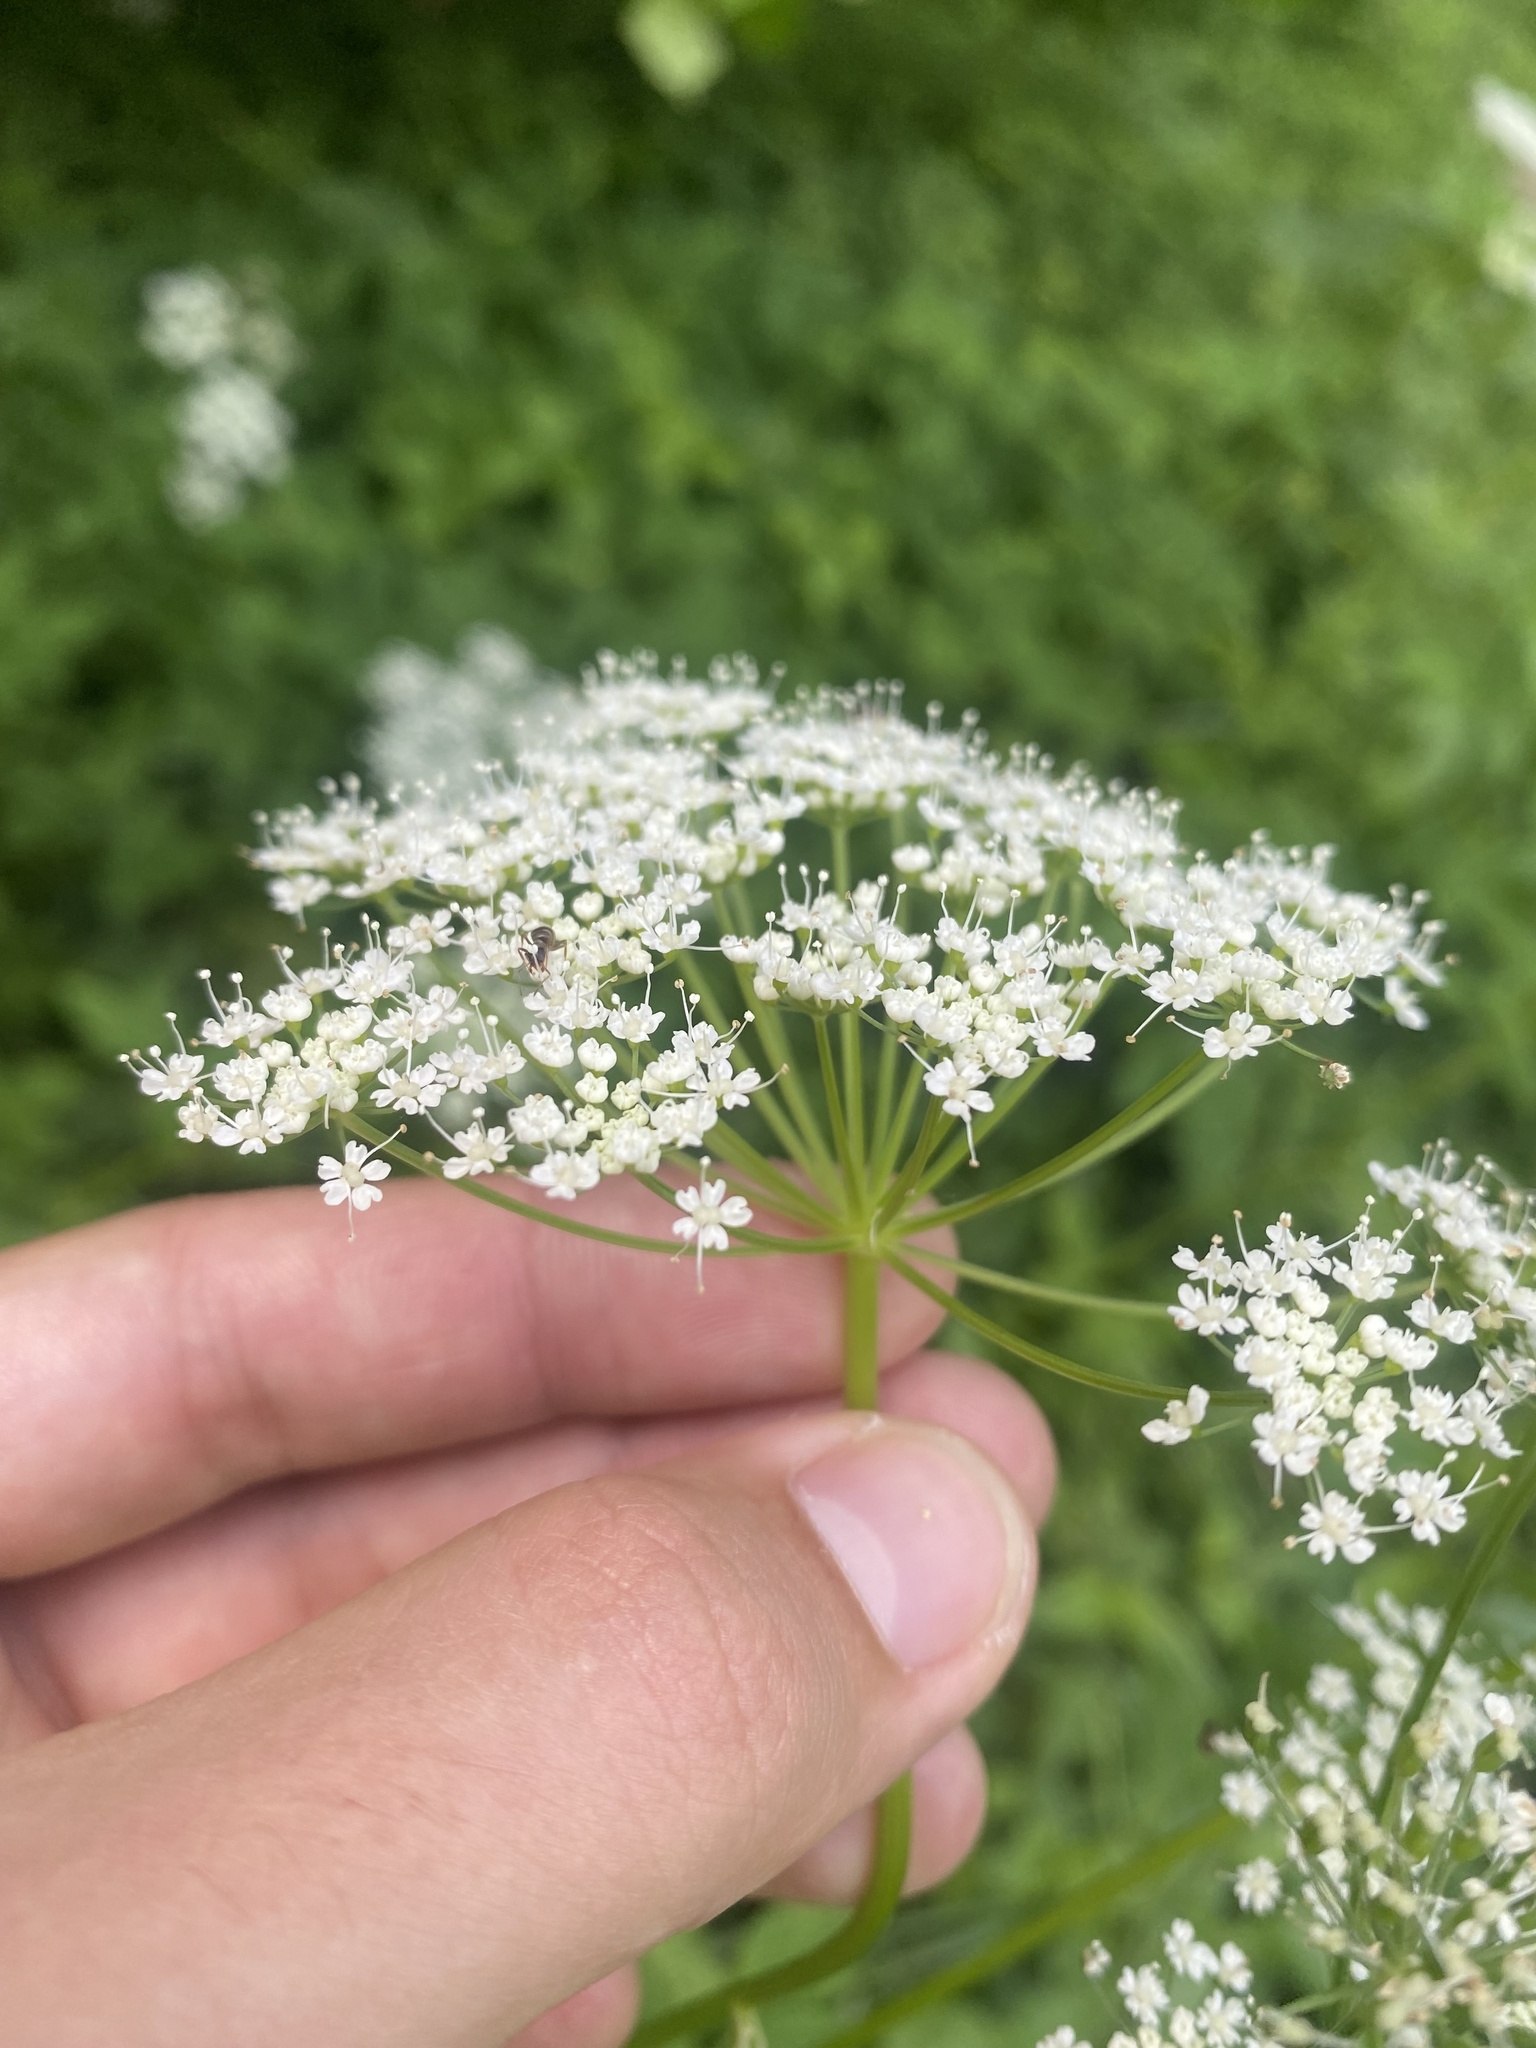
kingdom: Plantae
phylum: Tracheophyta
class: Magnoliopsida
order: Apiales
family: Apiaceae
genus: Aegopodium
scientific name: Aegopodium podagraria
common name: Ground-elder
